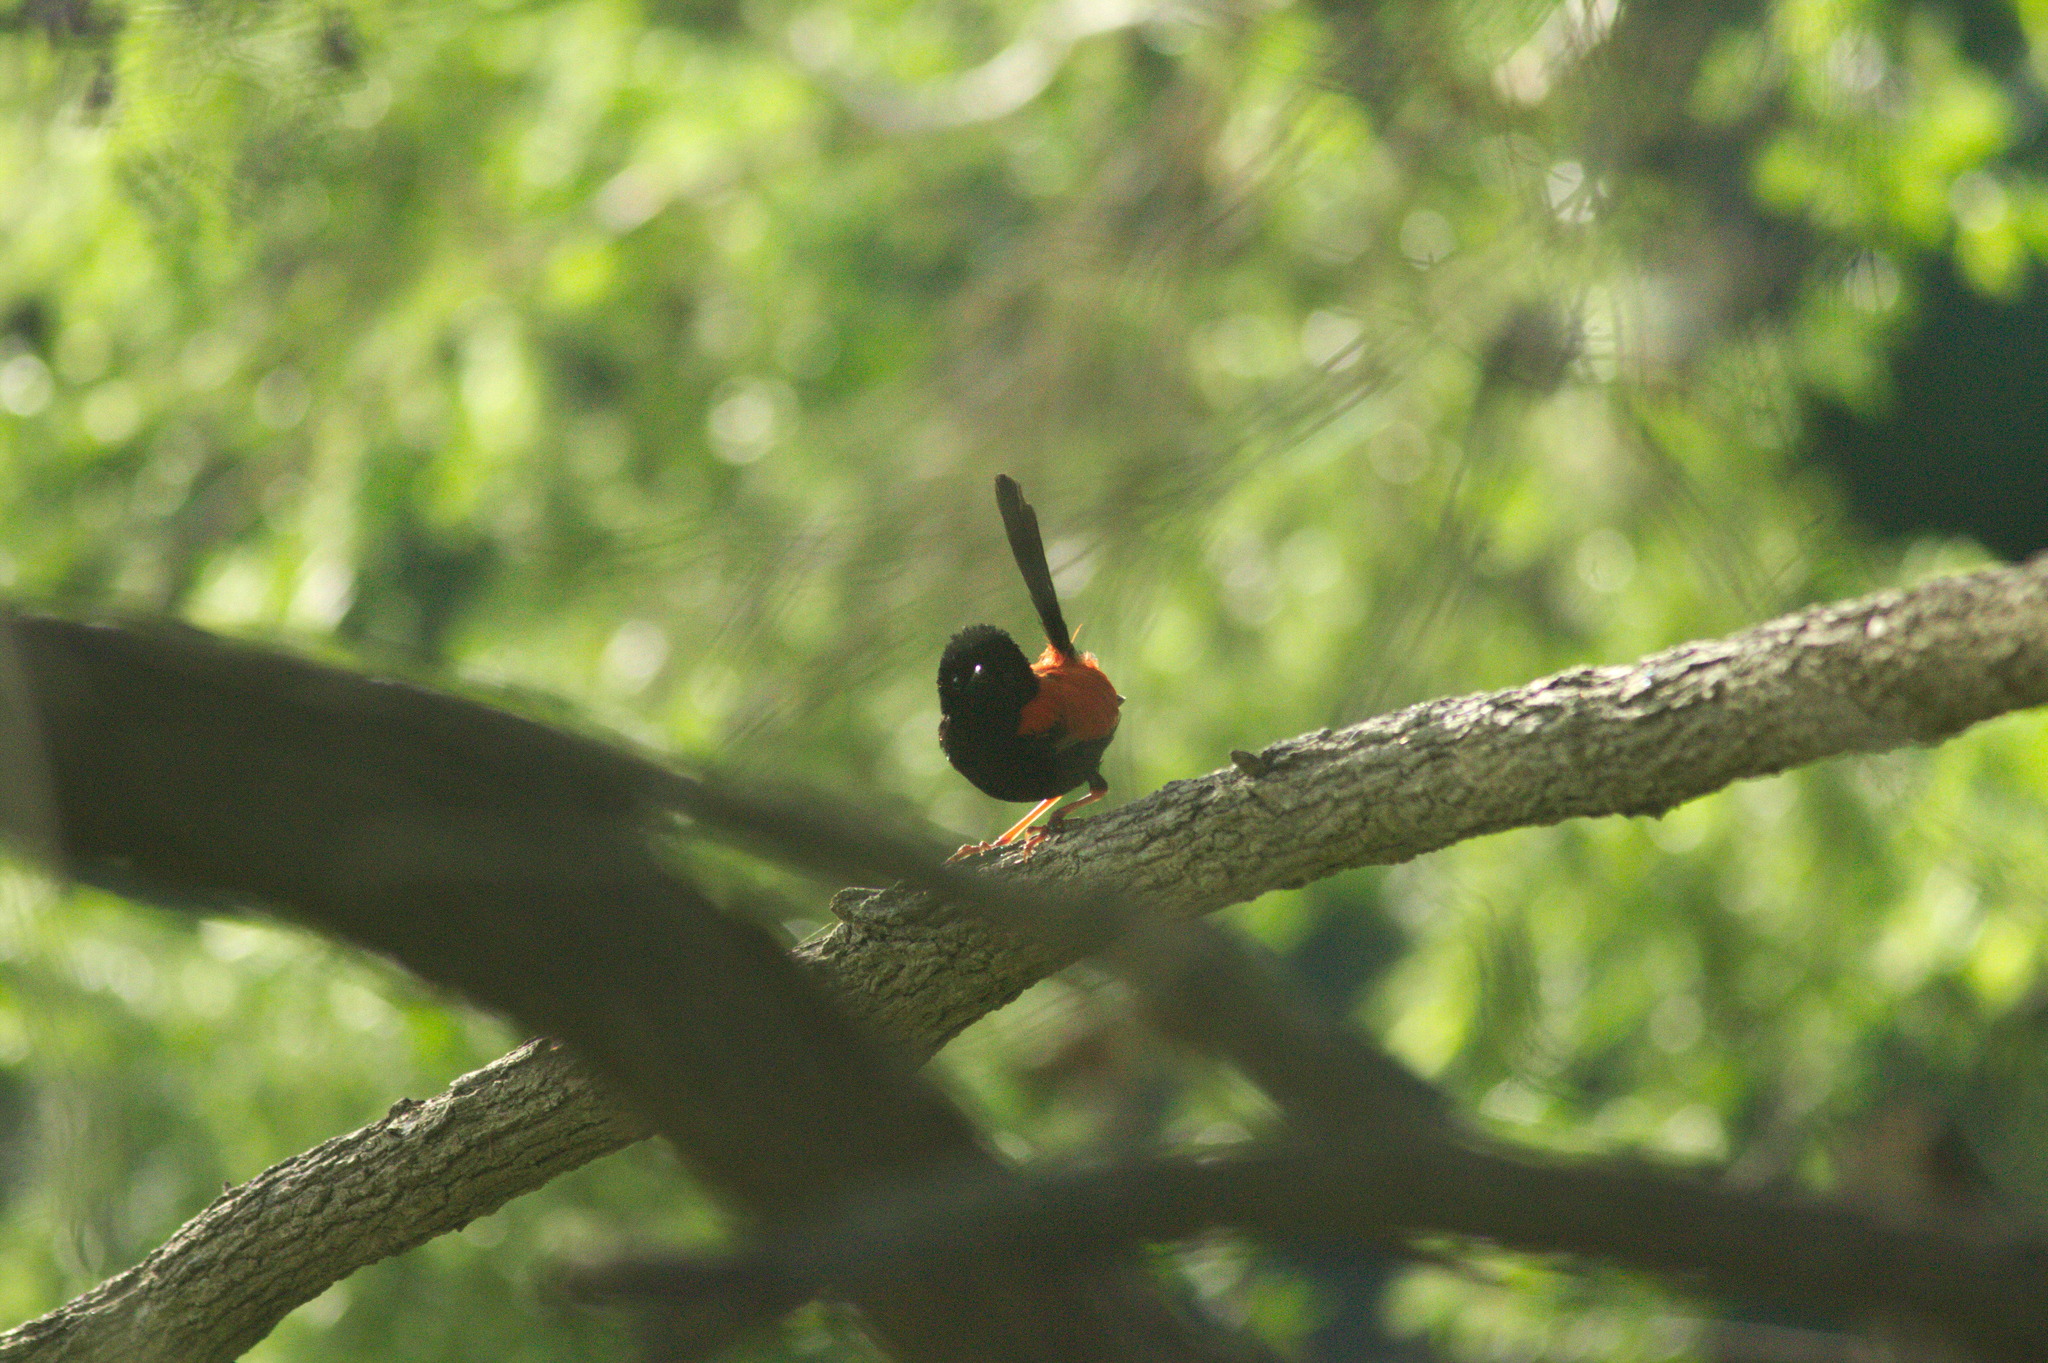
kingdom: Animalia
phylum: Chordata
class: Aves
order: Passeriformes
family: Maluridae
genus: Malurus
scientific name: Malurus melanocephalus
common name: Red-backed fairywren
